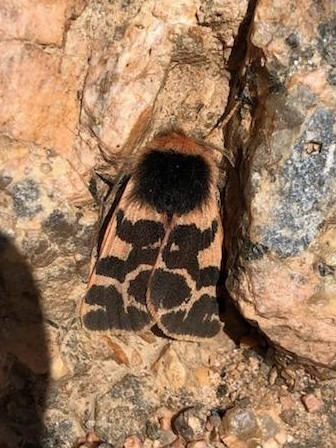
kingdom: Animalia
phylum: Arthropoda
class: Insecta
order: Lepidoptera
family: Erebidae
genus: Chelis
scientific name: Chelis brucei
